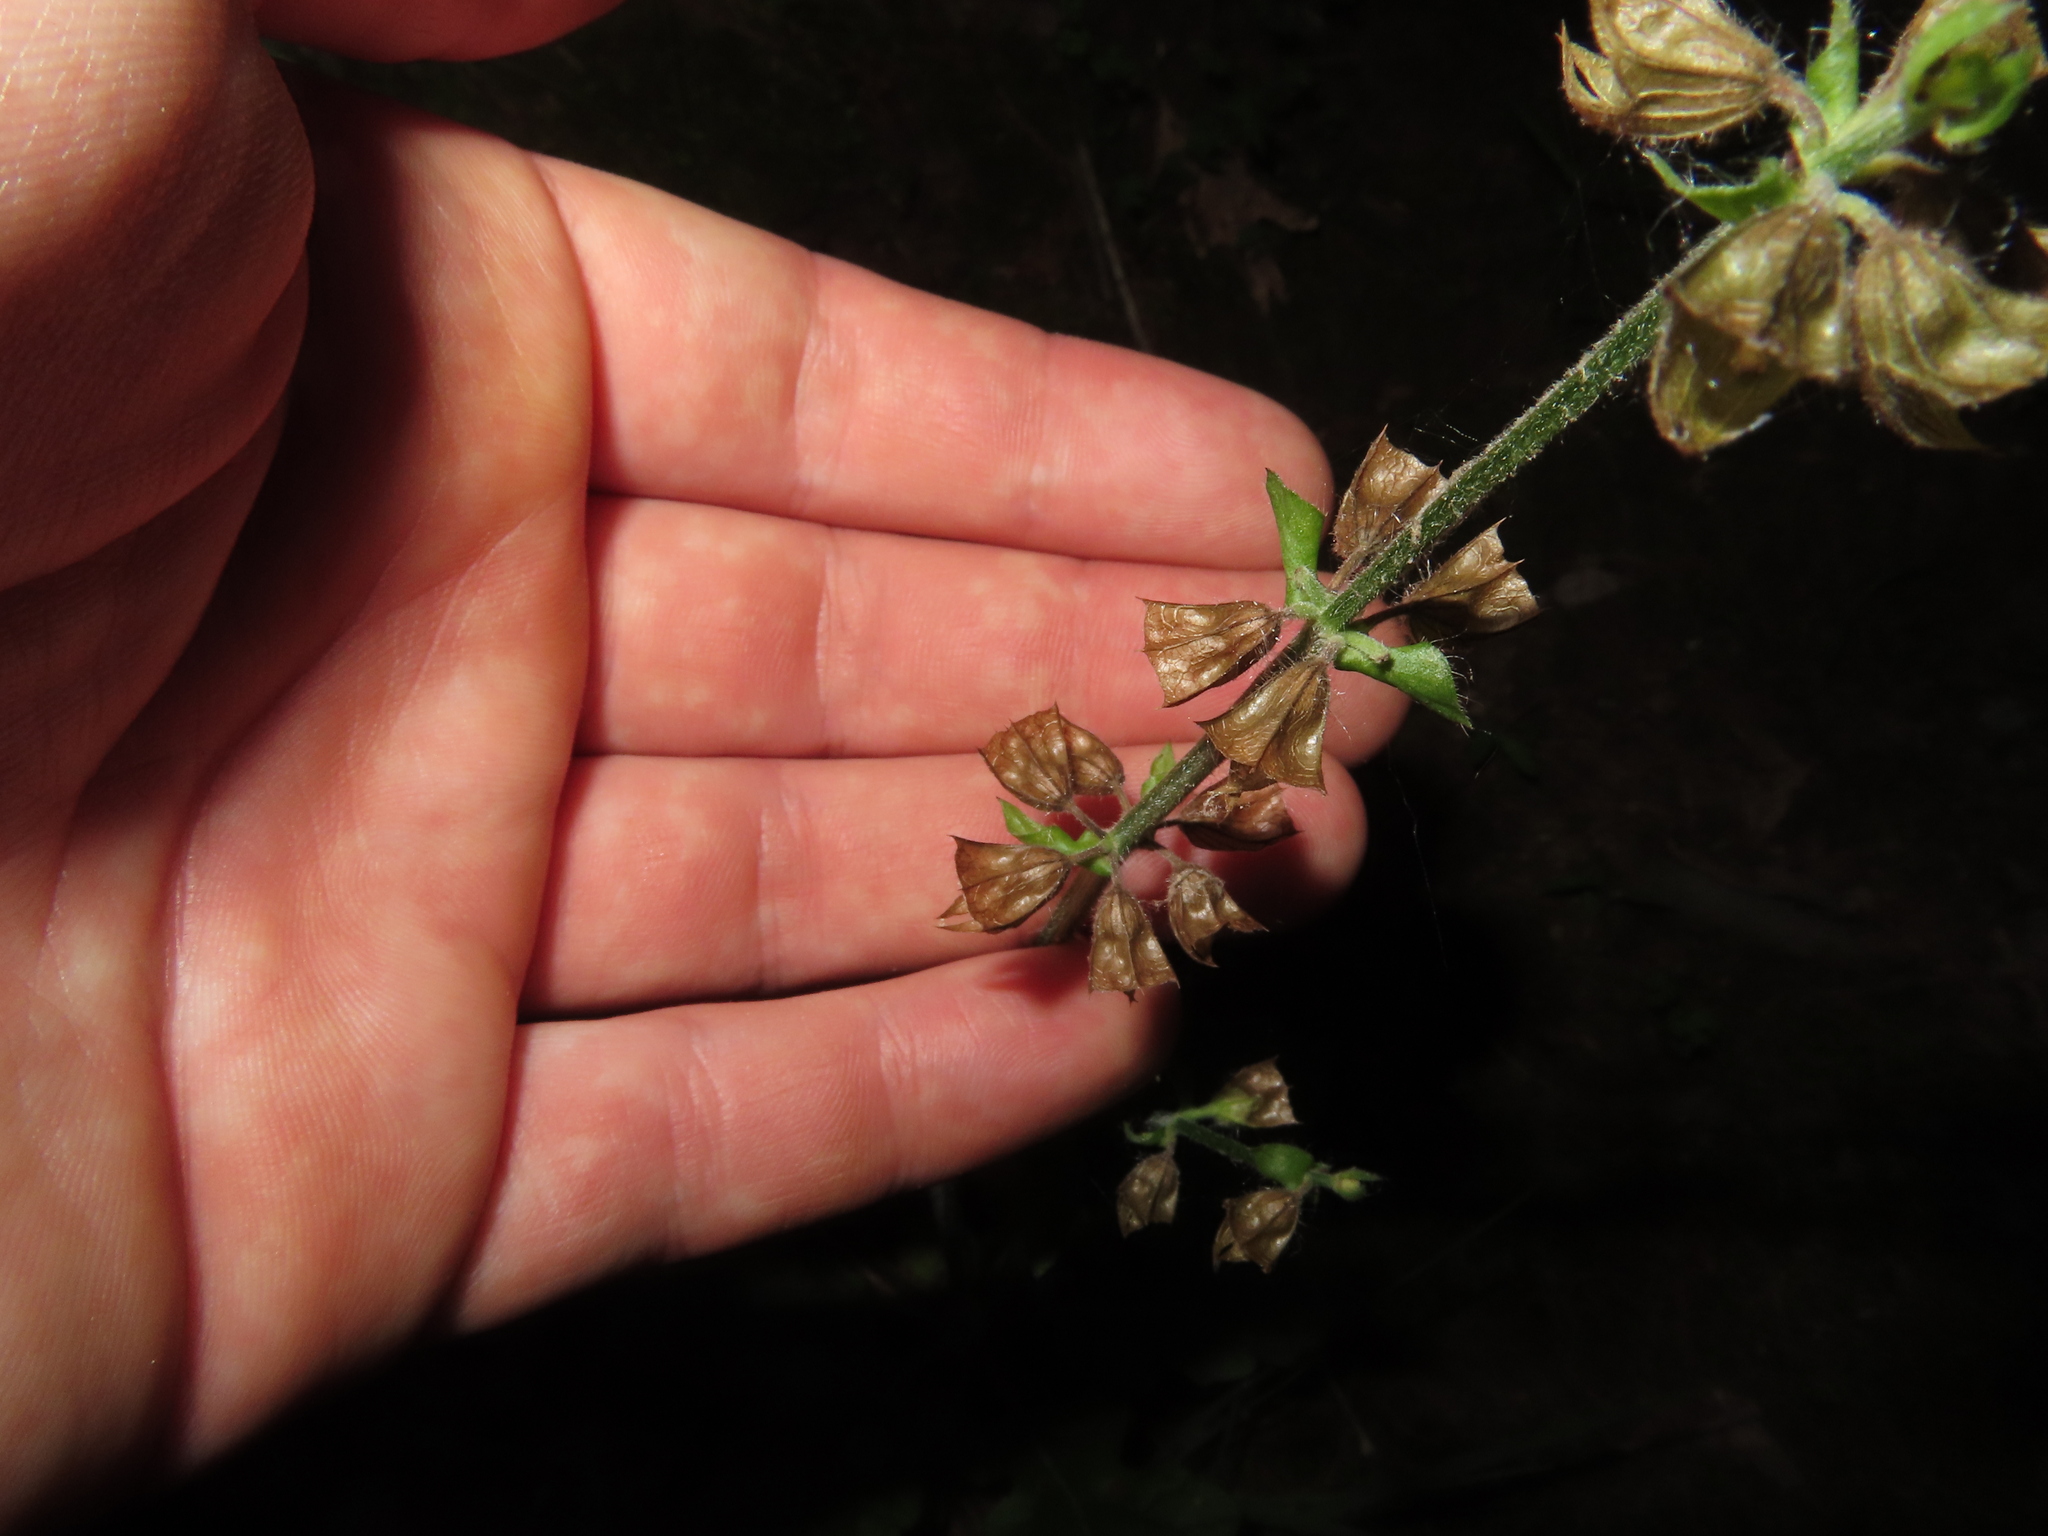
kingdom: Plantae
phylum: Tracheophyta
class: Magnoliopsida
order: Lamiales
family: Lamiaceae
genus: Salvia
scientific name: Salvia lyrata
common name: Cancerweed
